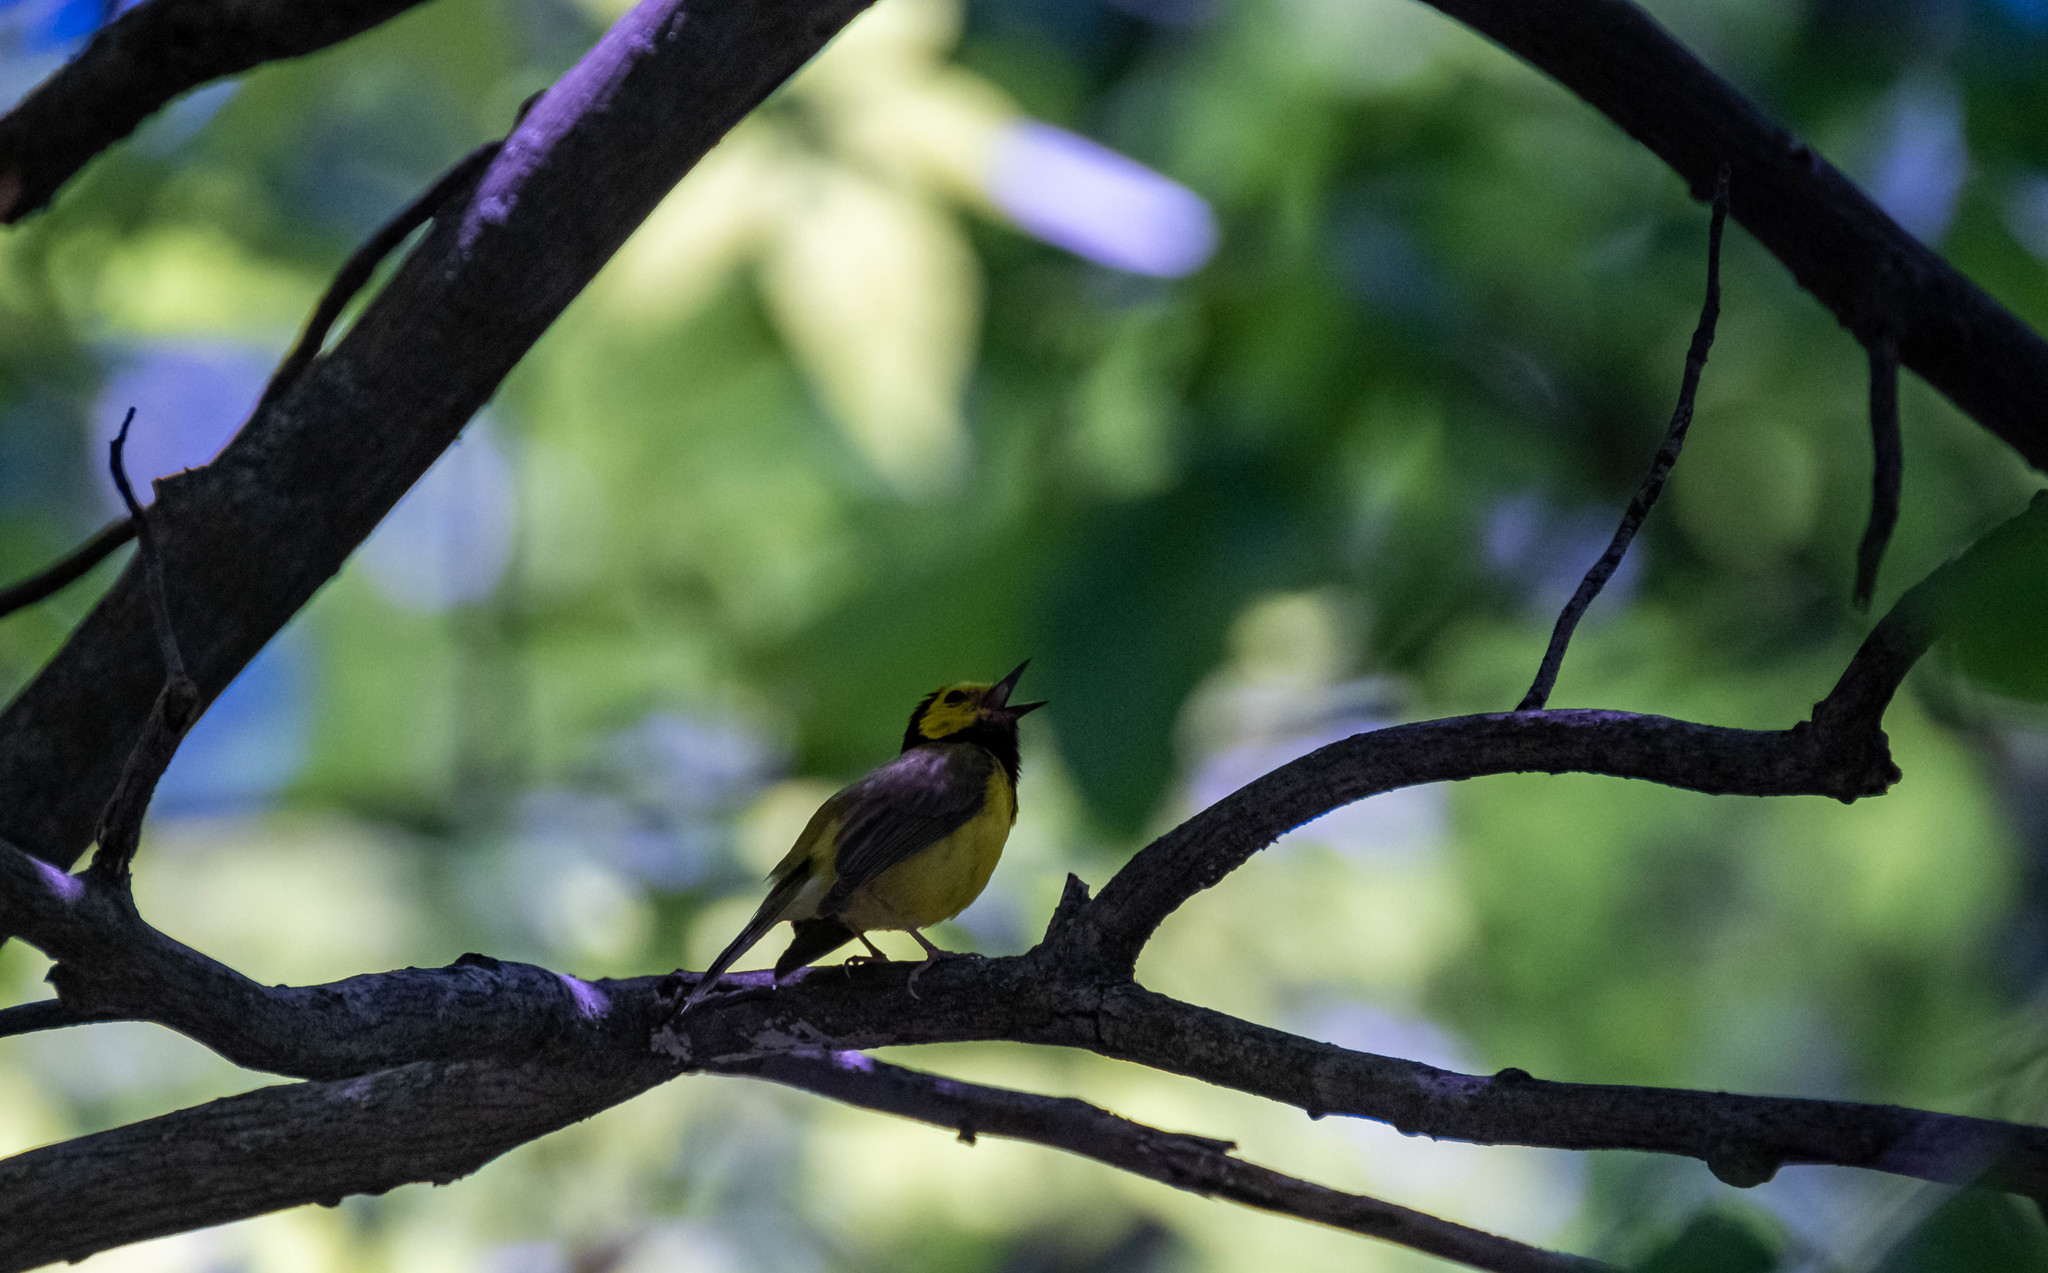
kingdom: Animalia
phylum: Chordata
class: Aves
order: Passeriformes
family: Parulidae
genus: Setophaga
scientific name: Setophaga citrina
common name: Hooded warbler
